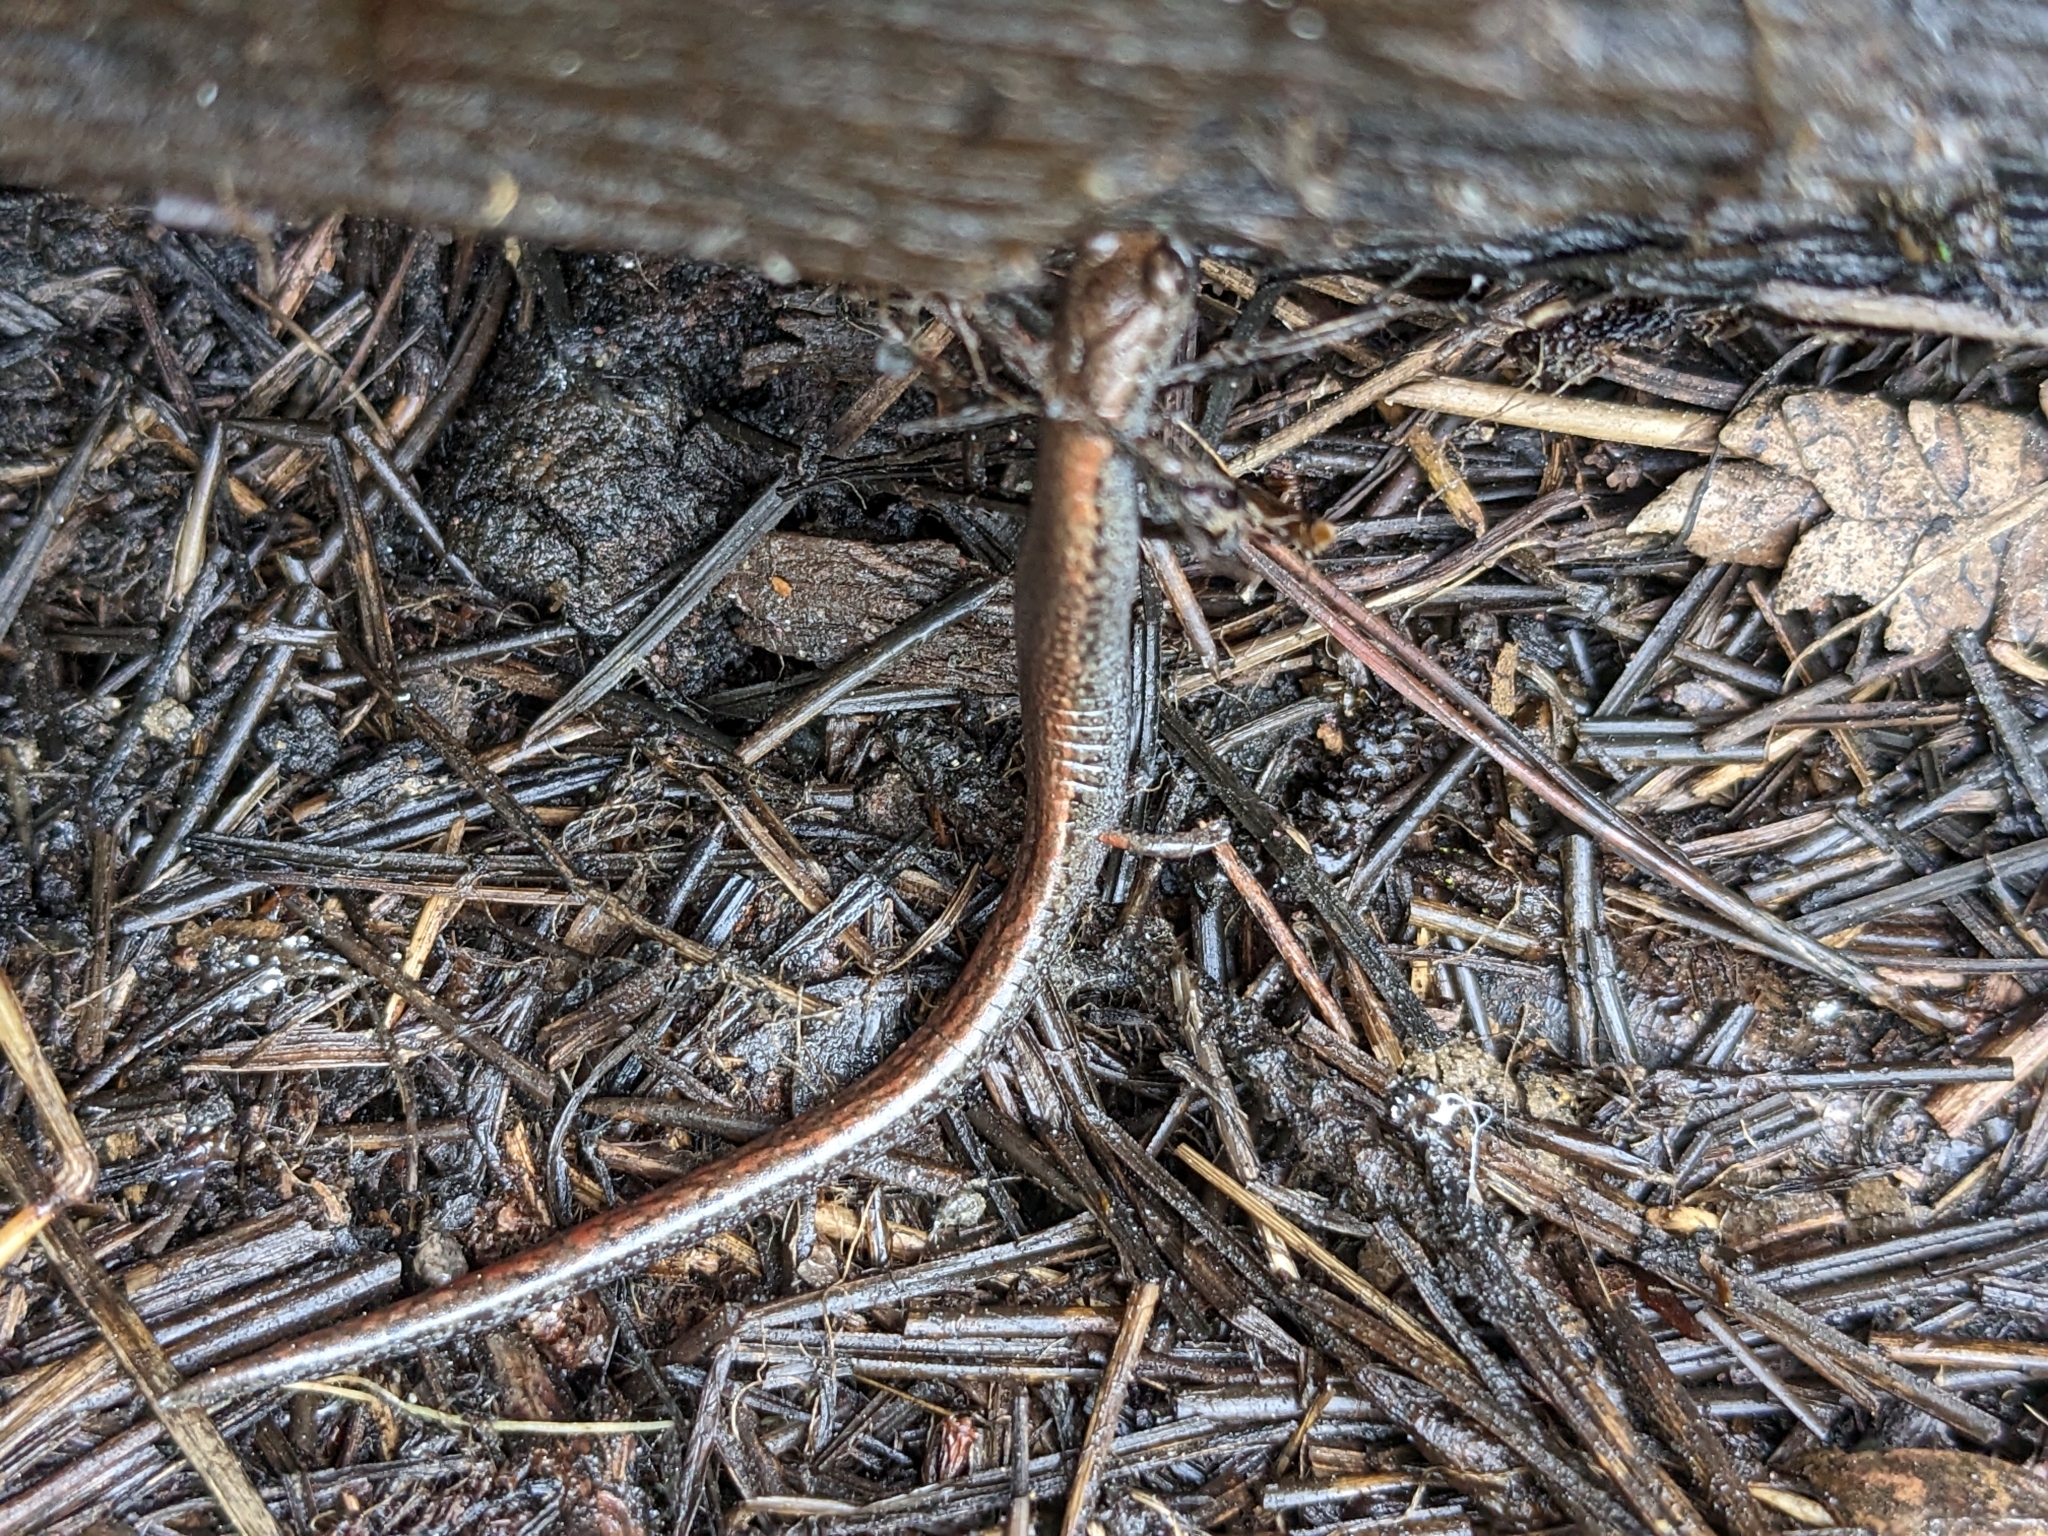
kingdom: Animalia
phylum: Chordata
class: Amphibia
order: Caudata
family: Plethodontidae
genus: Batrachoseps
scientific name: Batrachoseps attenuatus
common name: California slender salamander
